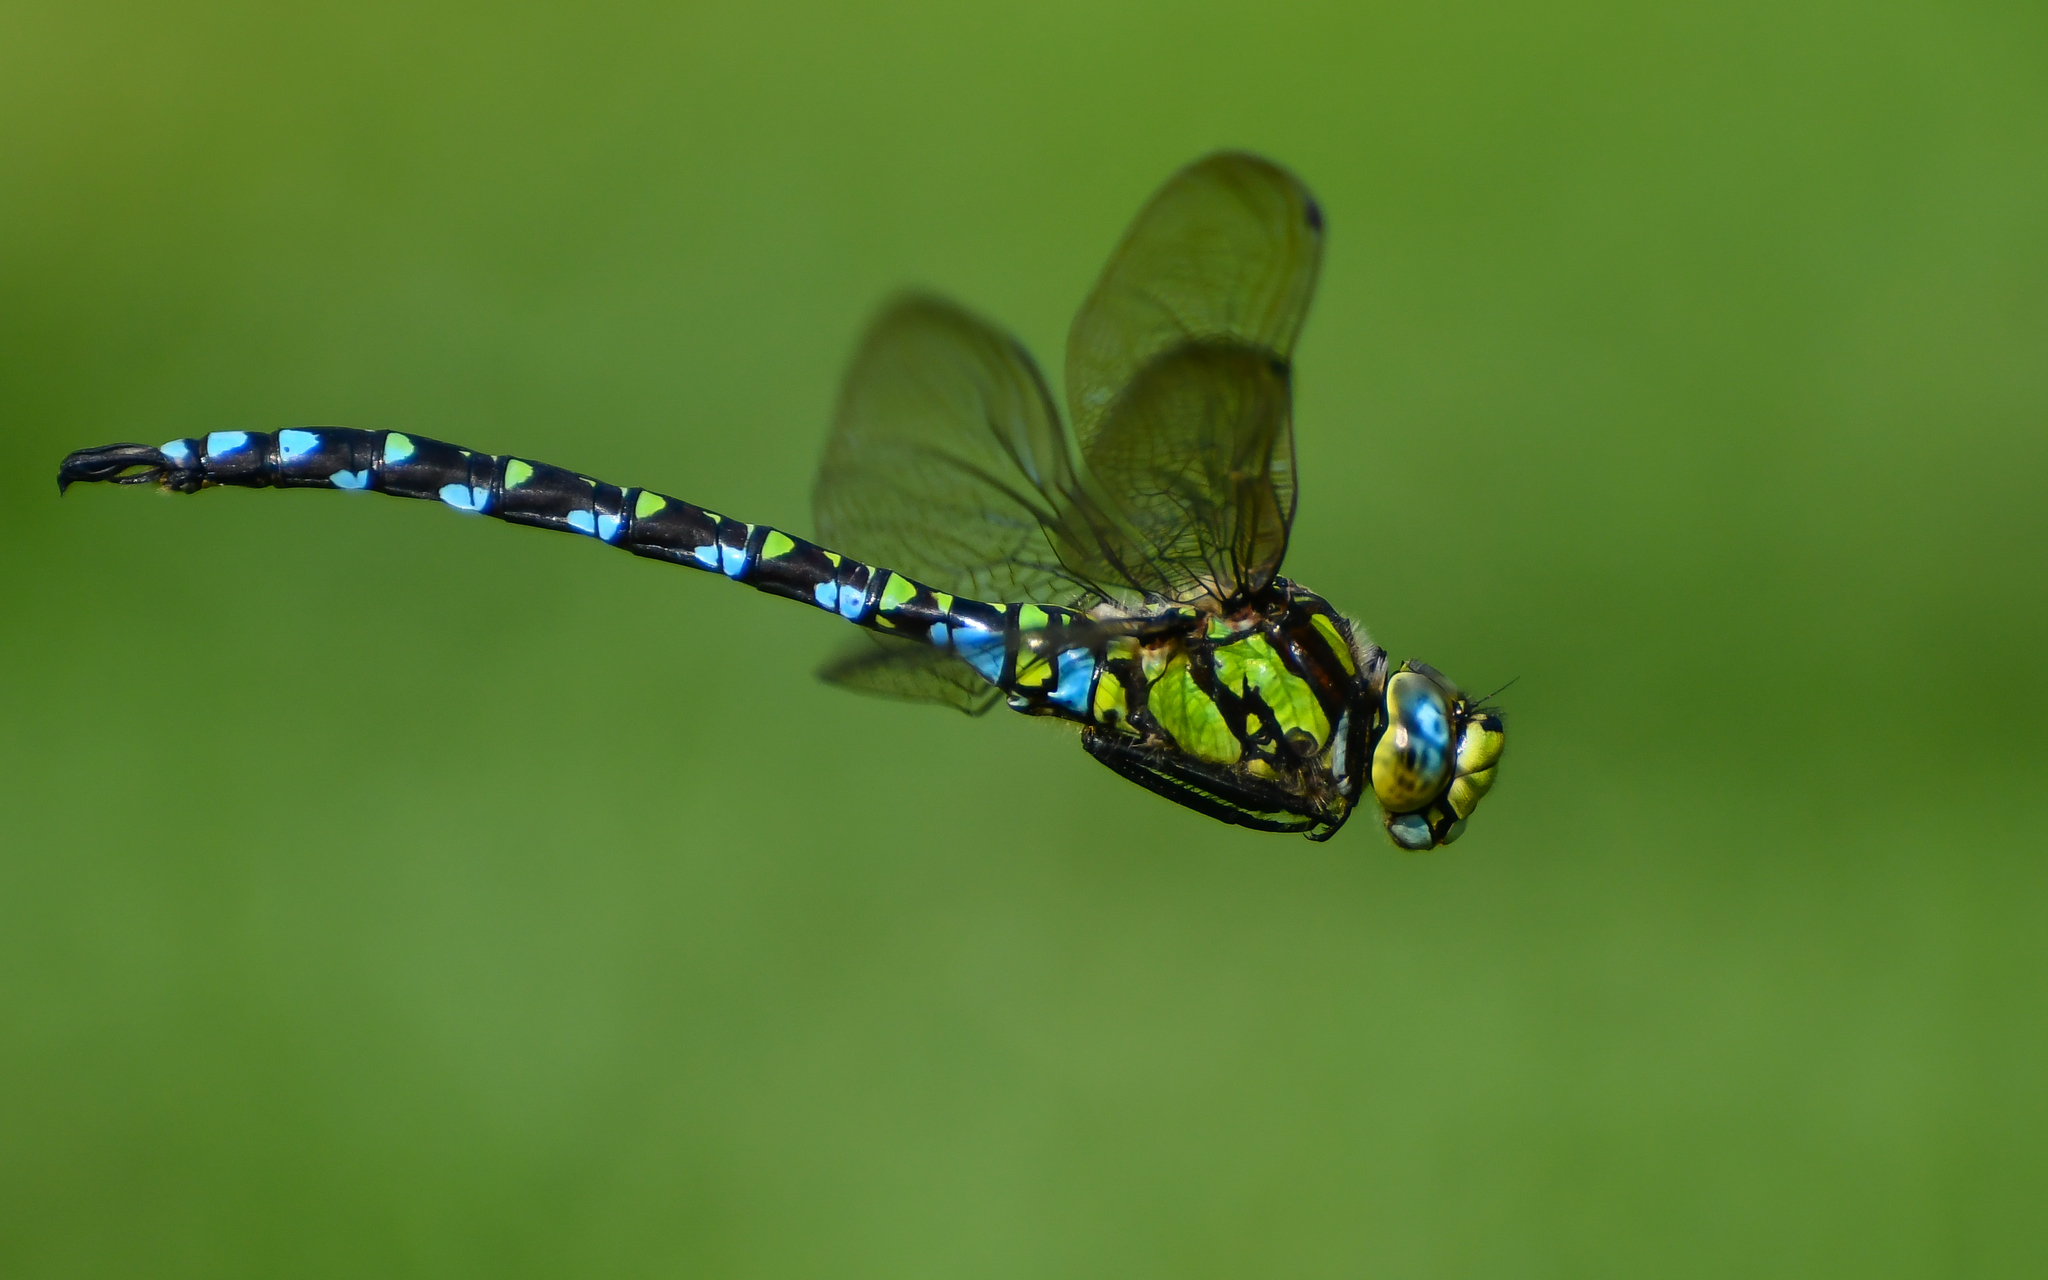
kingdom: Animalia
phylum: Arthropoda
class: Insecta
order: Odonata
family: Aeshnidae
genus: Aeshna
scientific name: Aeshna cyanea
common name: Southern hawker
